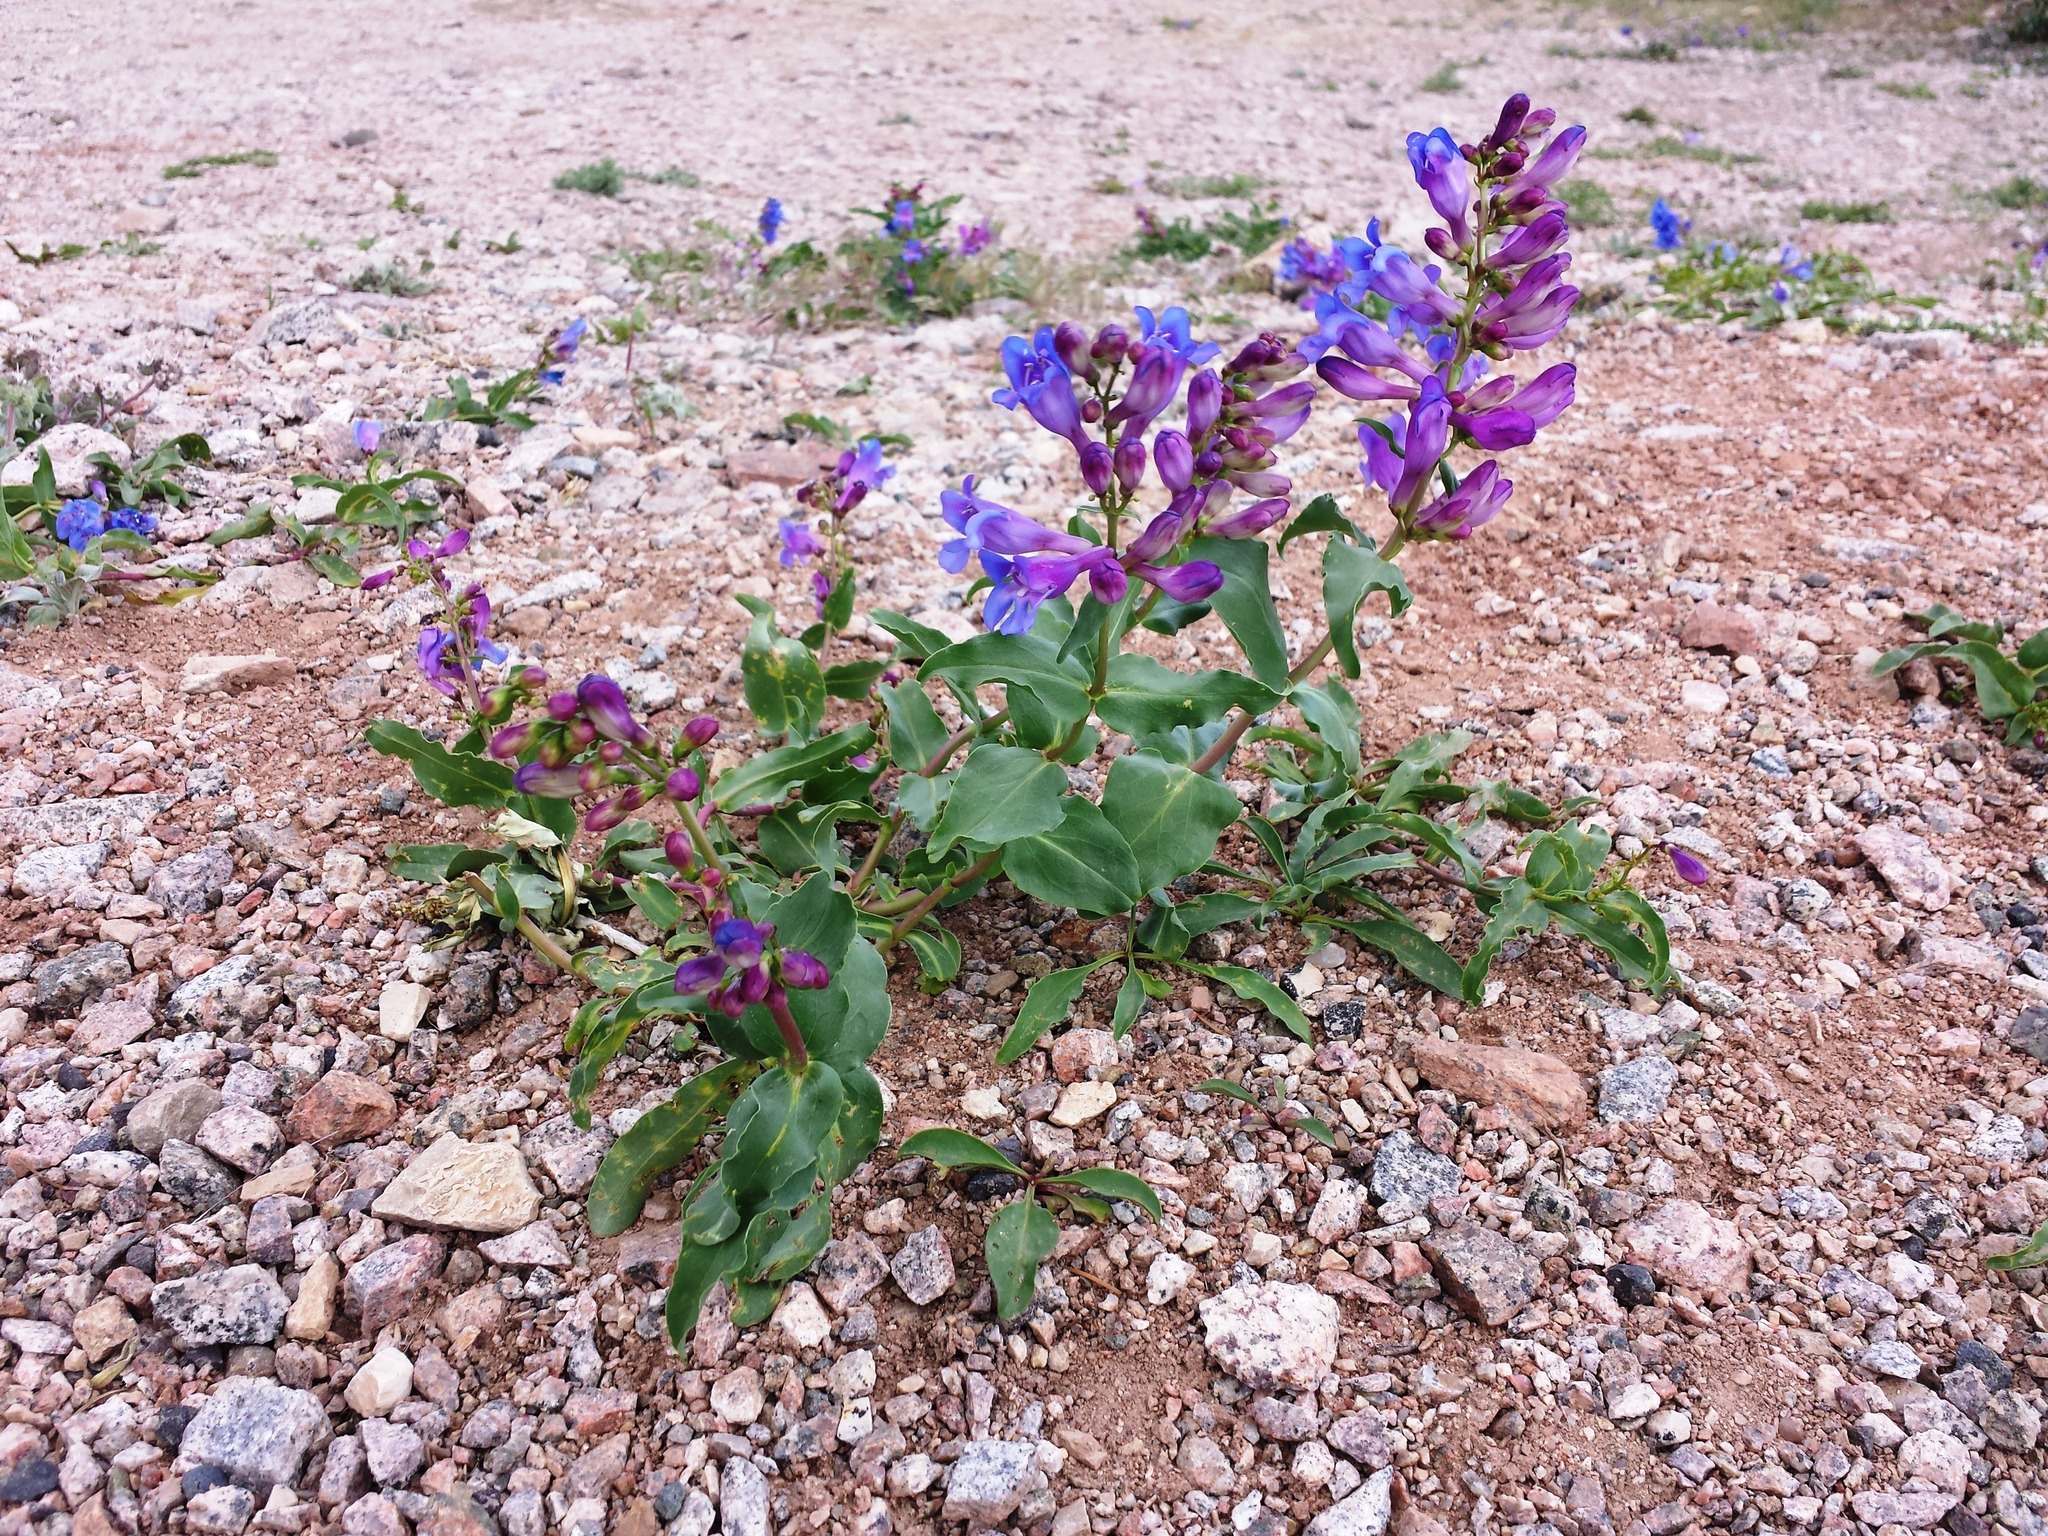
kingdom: Plantae
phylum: Tracheophyta
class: Magnoliopsida
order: Lamiales
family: Plantaginaceae
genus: Penstemon
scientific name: Penstemon glaber
